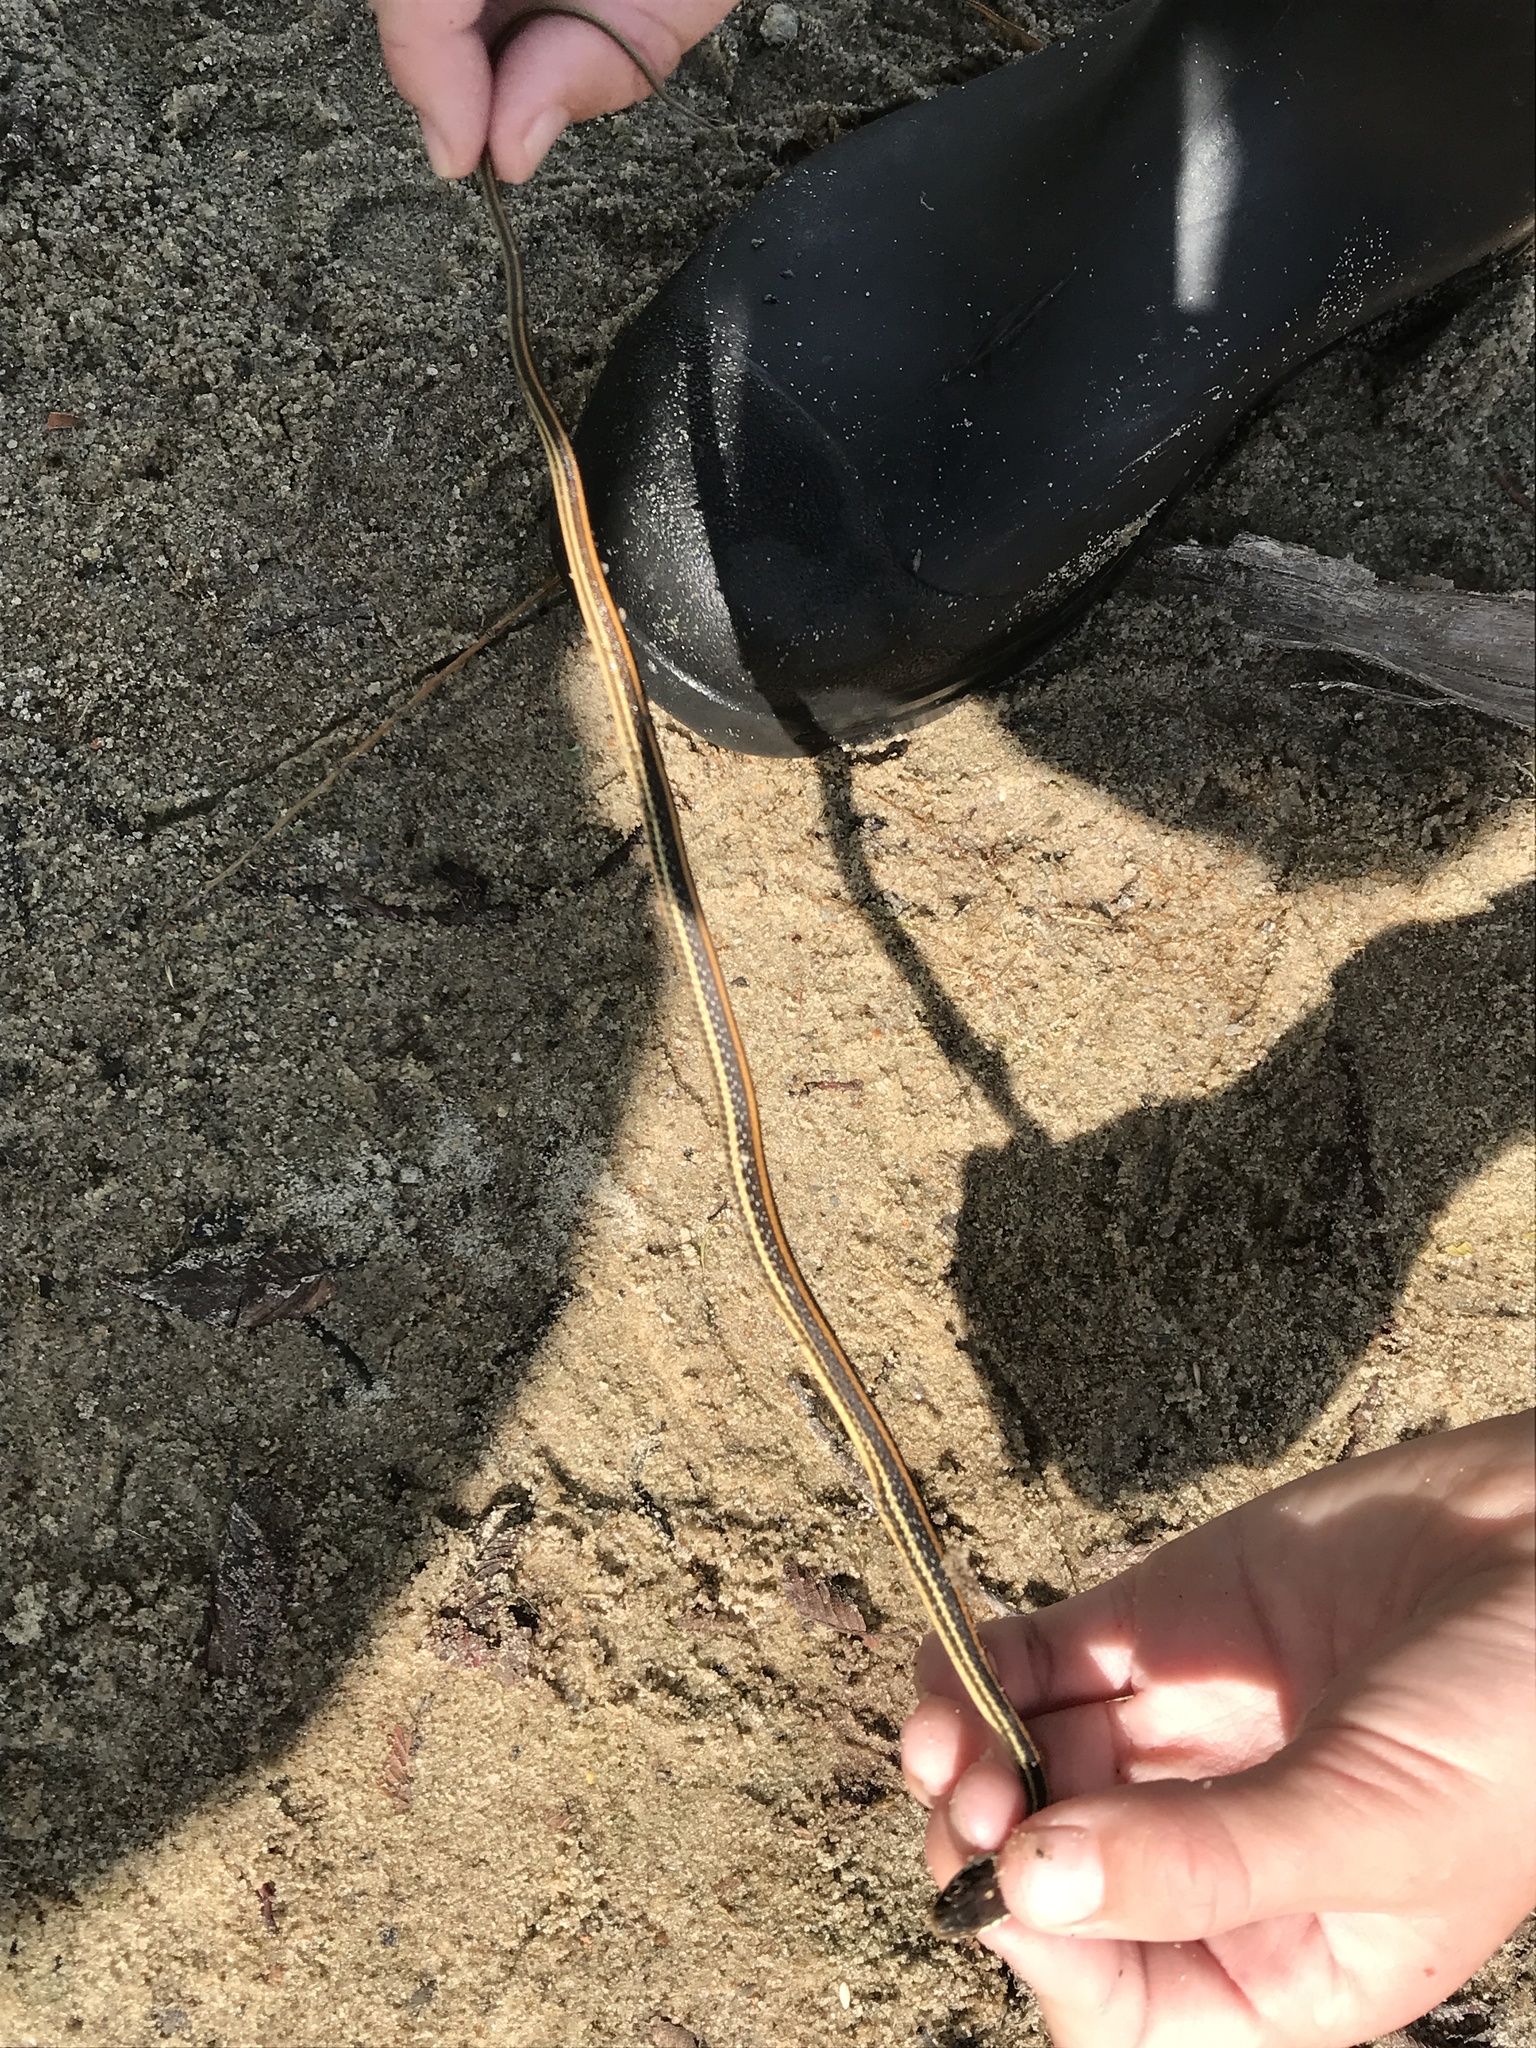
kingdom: Animalia
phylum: Chordata
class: Squamata
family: Colubridae
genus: Thamnophis
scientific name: Thamnophis proximus
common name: Western ribbon snake
